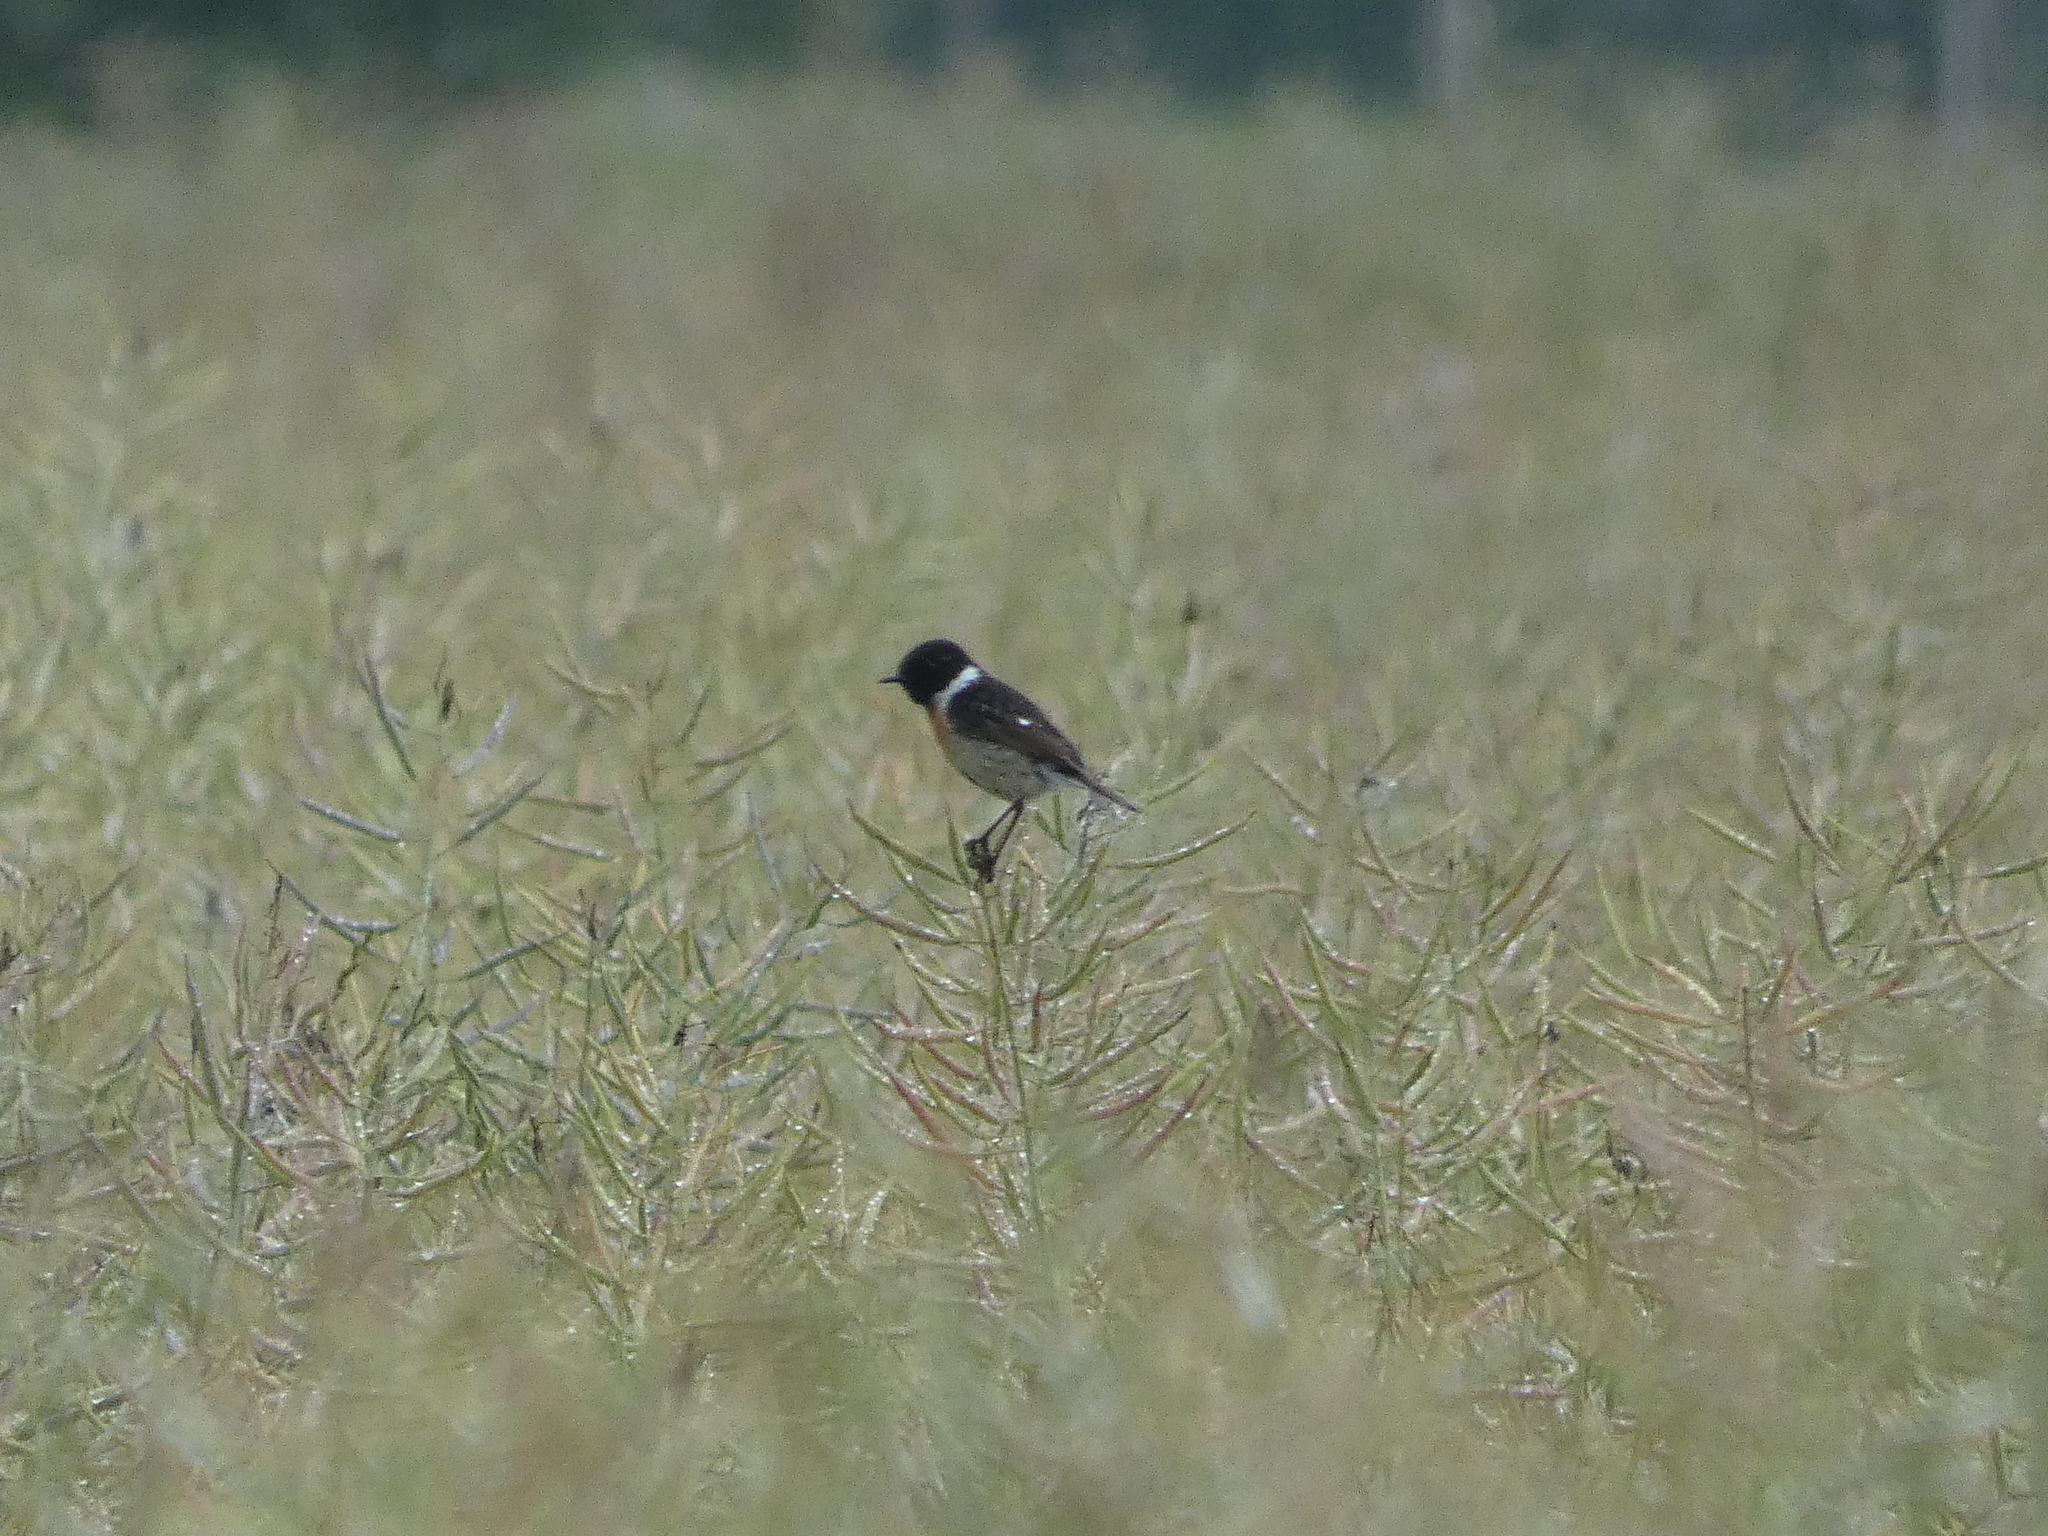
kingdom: Animalia
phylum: Chordata
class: Aves
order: Passeriformes
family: Muscicapidae
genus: Saxicola
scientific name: Saxicola rubicola
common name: European stonechat
